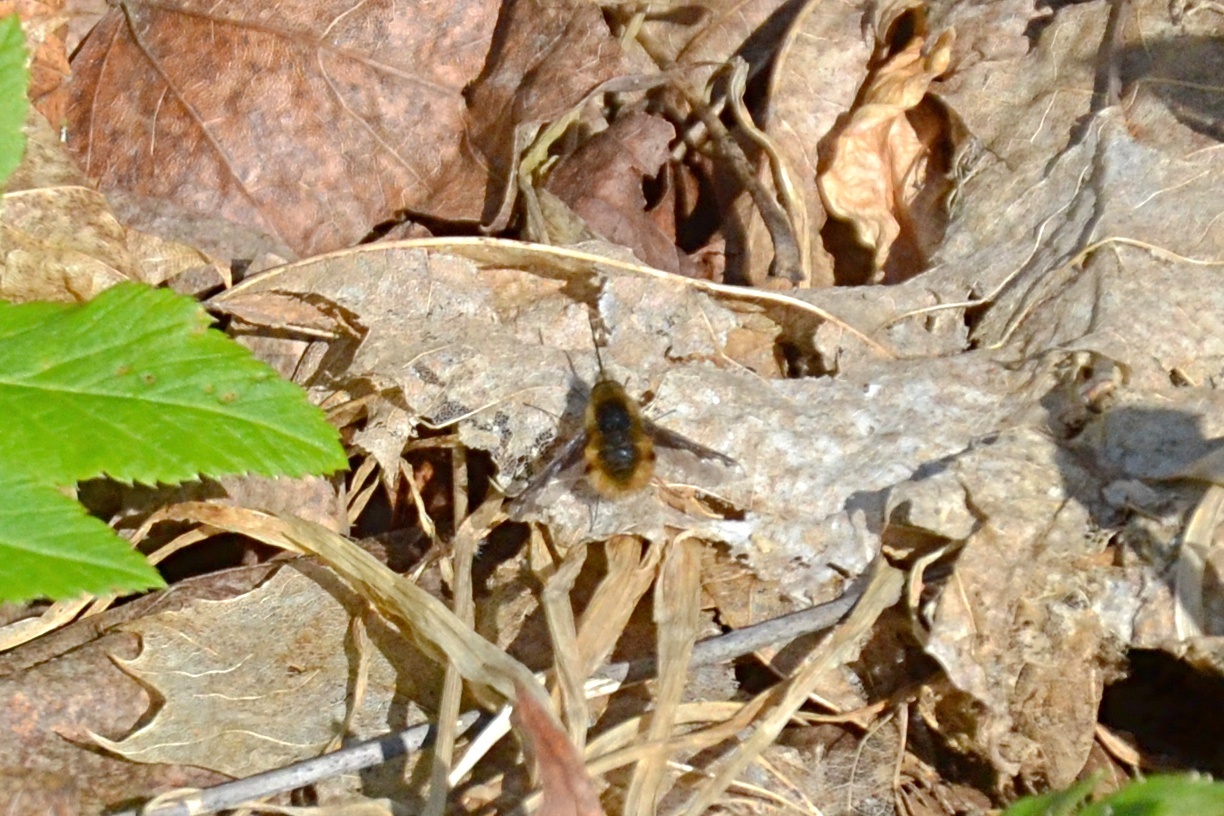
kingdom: Animalia
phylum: Arthropoda
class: Insecta
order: Diptera
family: Bombyliidae
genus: Bombylius
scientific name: Bombylius major
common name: Bee fly
